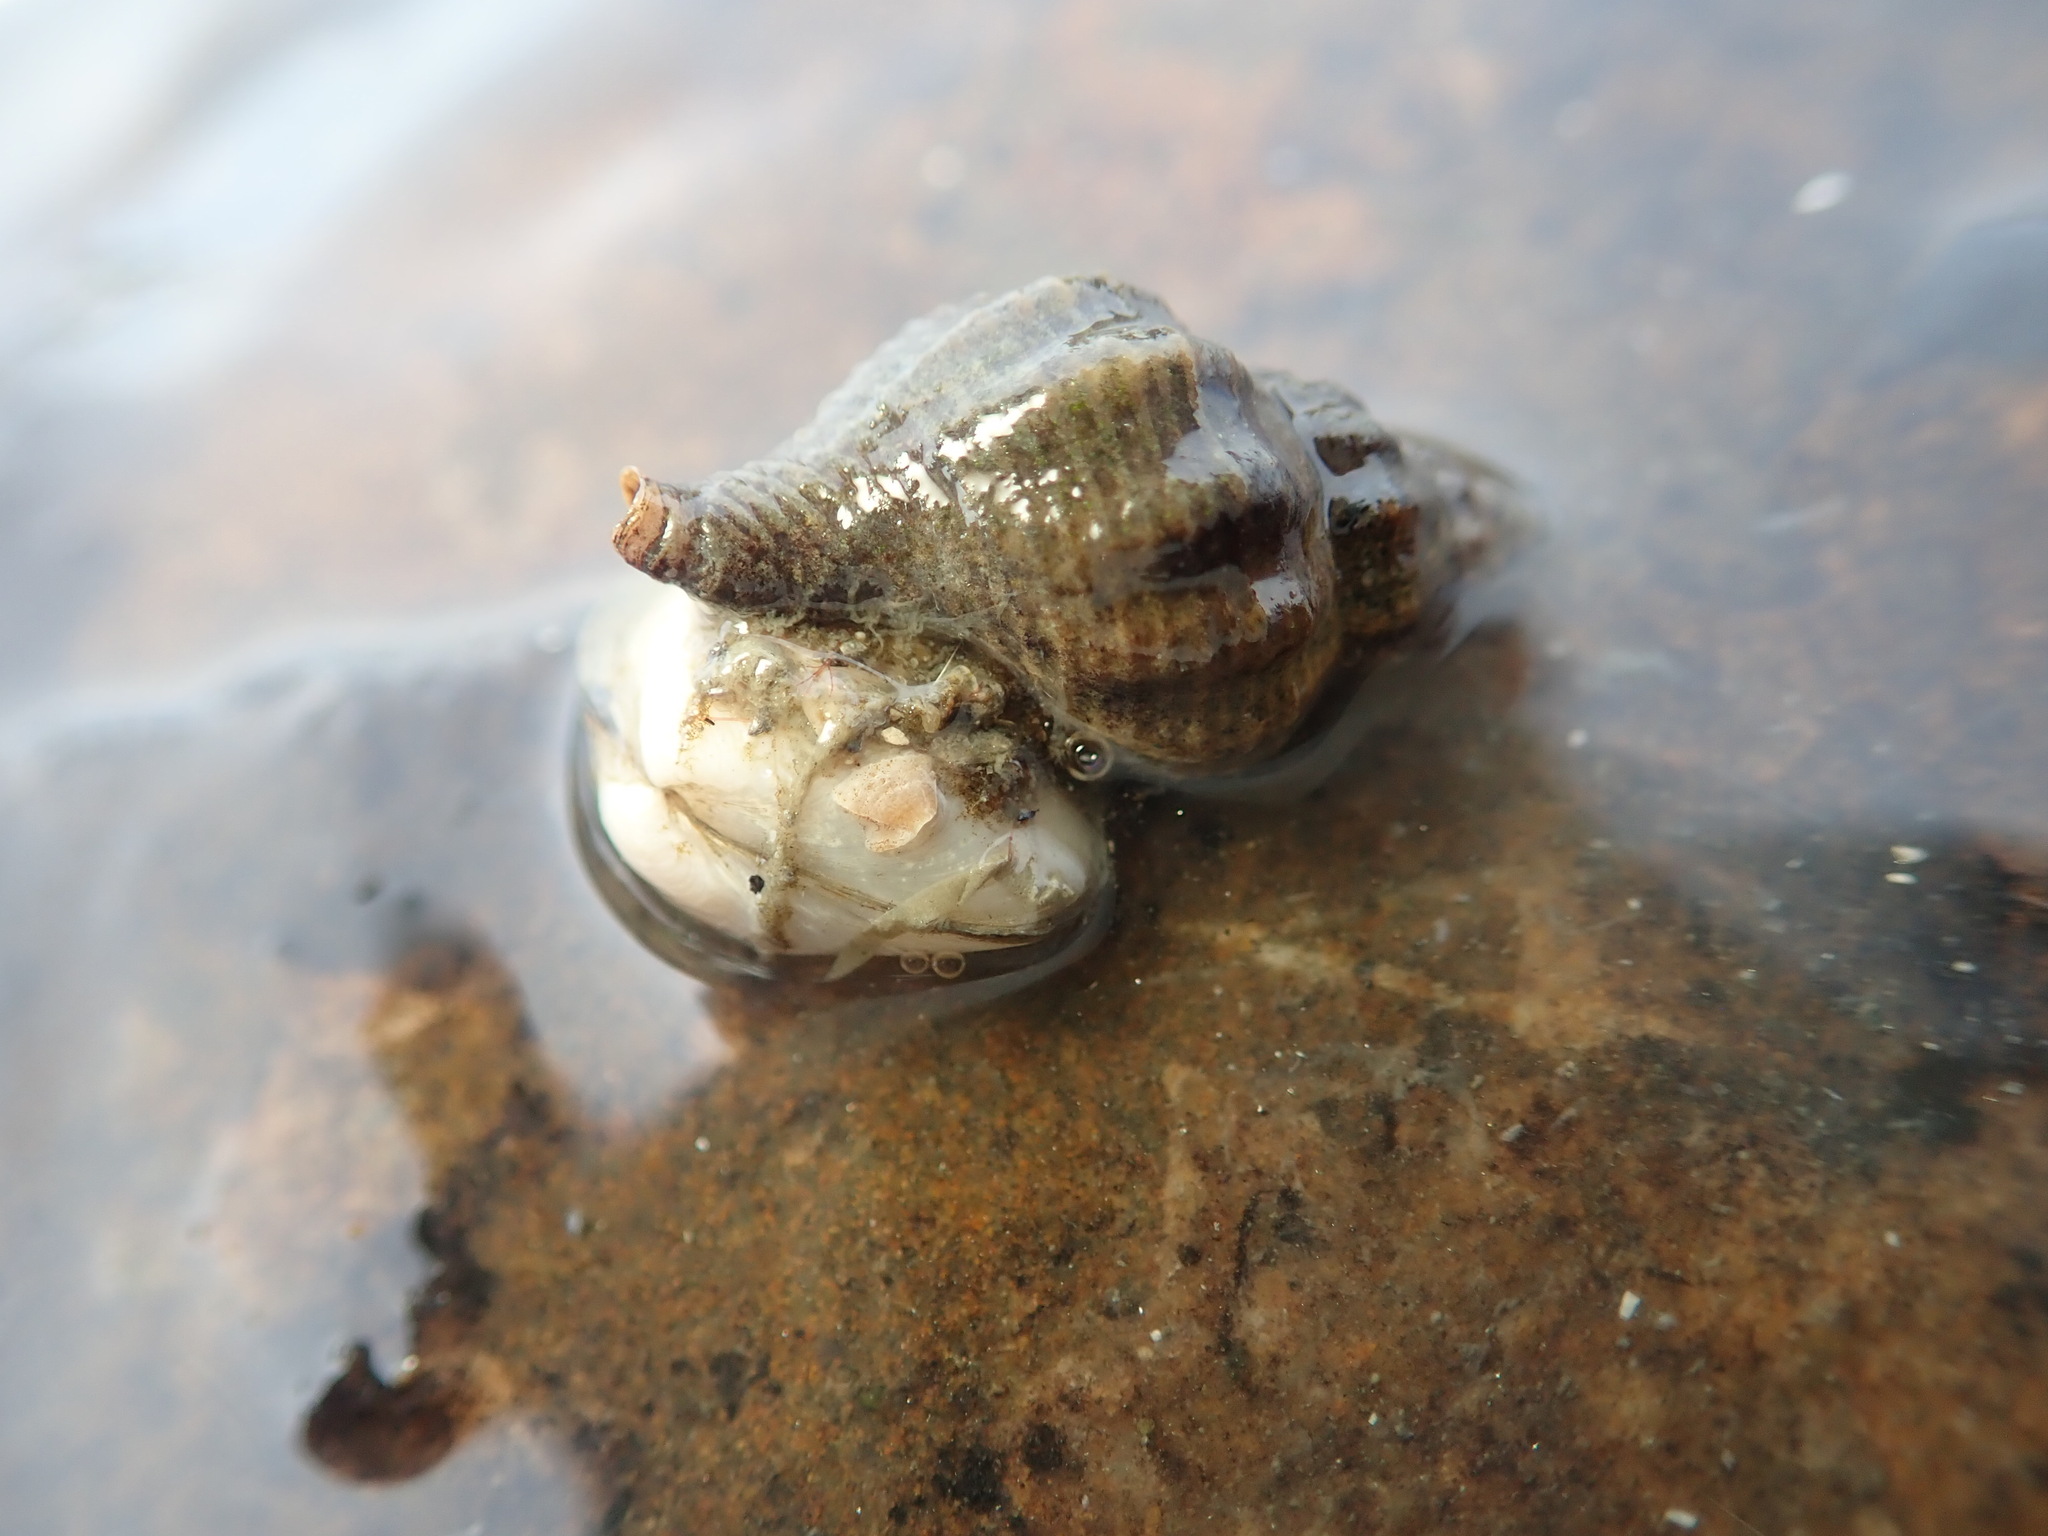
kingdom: Animalia
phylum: Mollusca
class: Gastropoda
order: Neogastropoda
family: Muricidae
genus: Urosalpinx
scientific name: Urosalpinx cinerea
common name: American sting winkle
